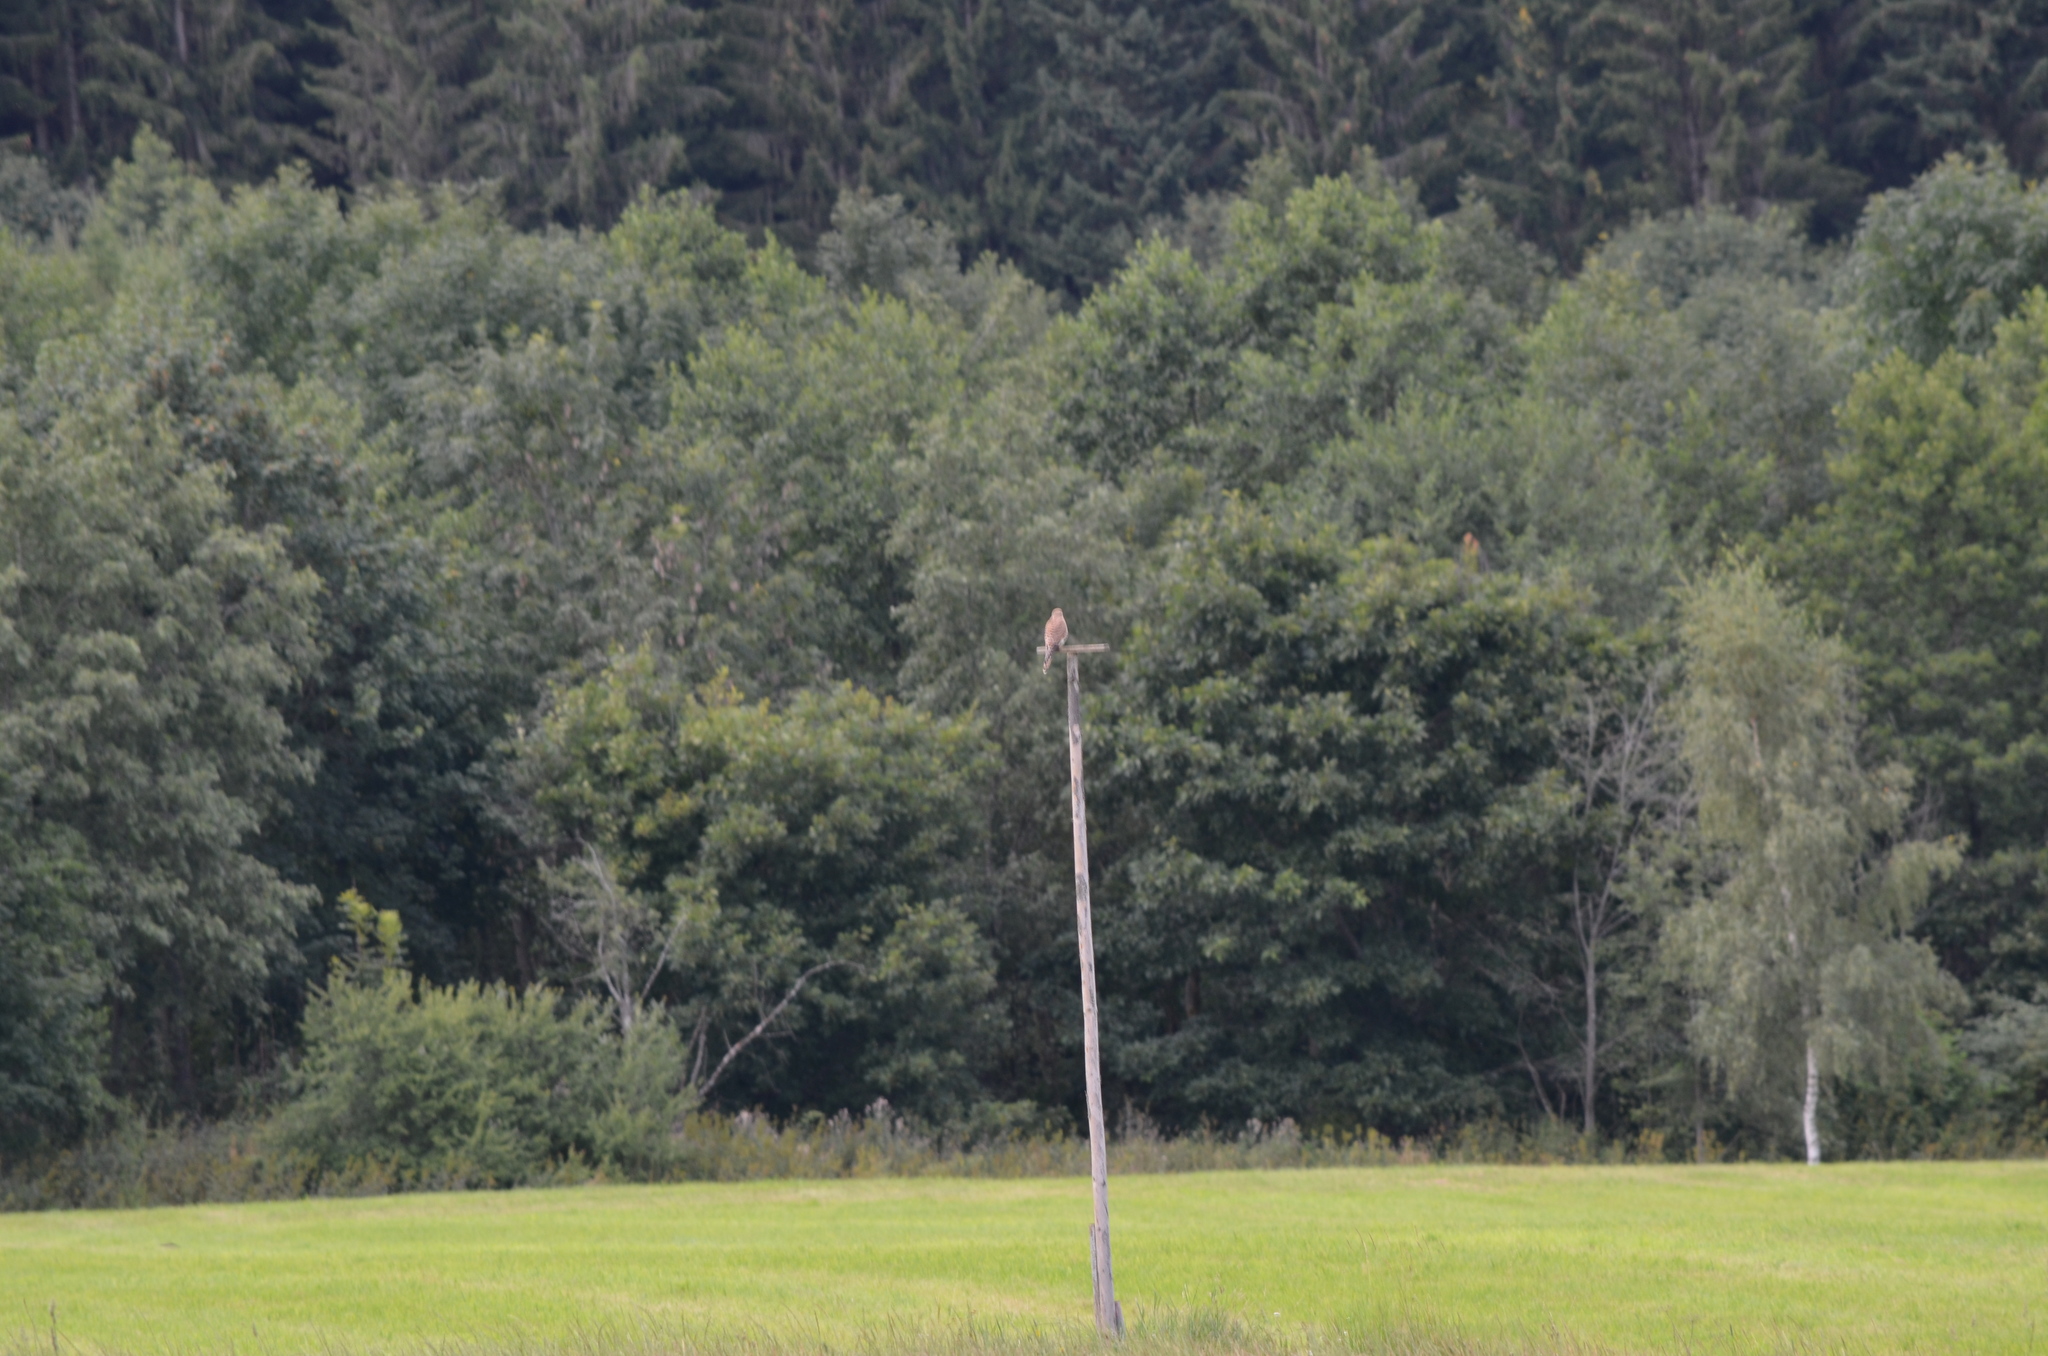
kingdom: Animalia
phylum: Chordata
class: Aves
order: Falconiformes
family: Falconidae
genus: Falco
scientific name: Falco tinnunculus
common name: Common kestrel
